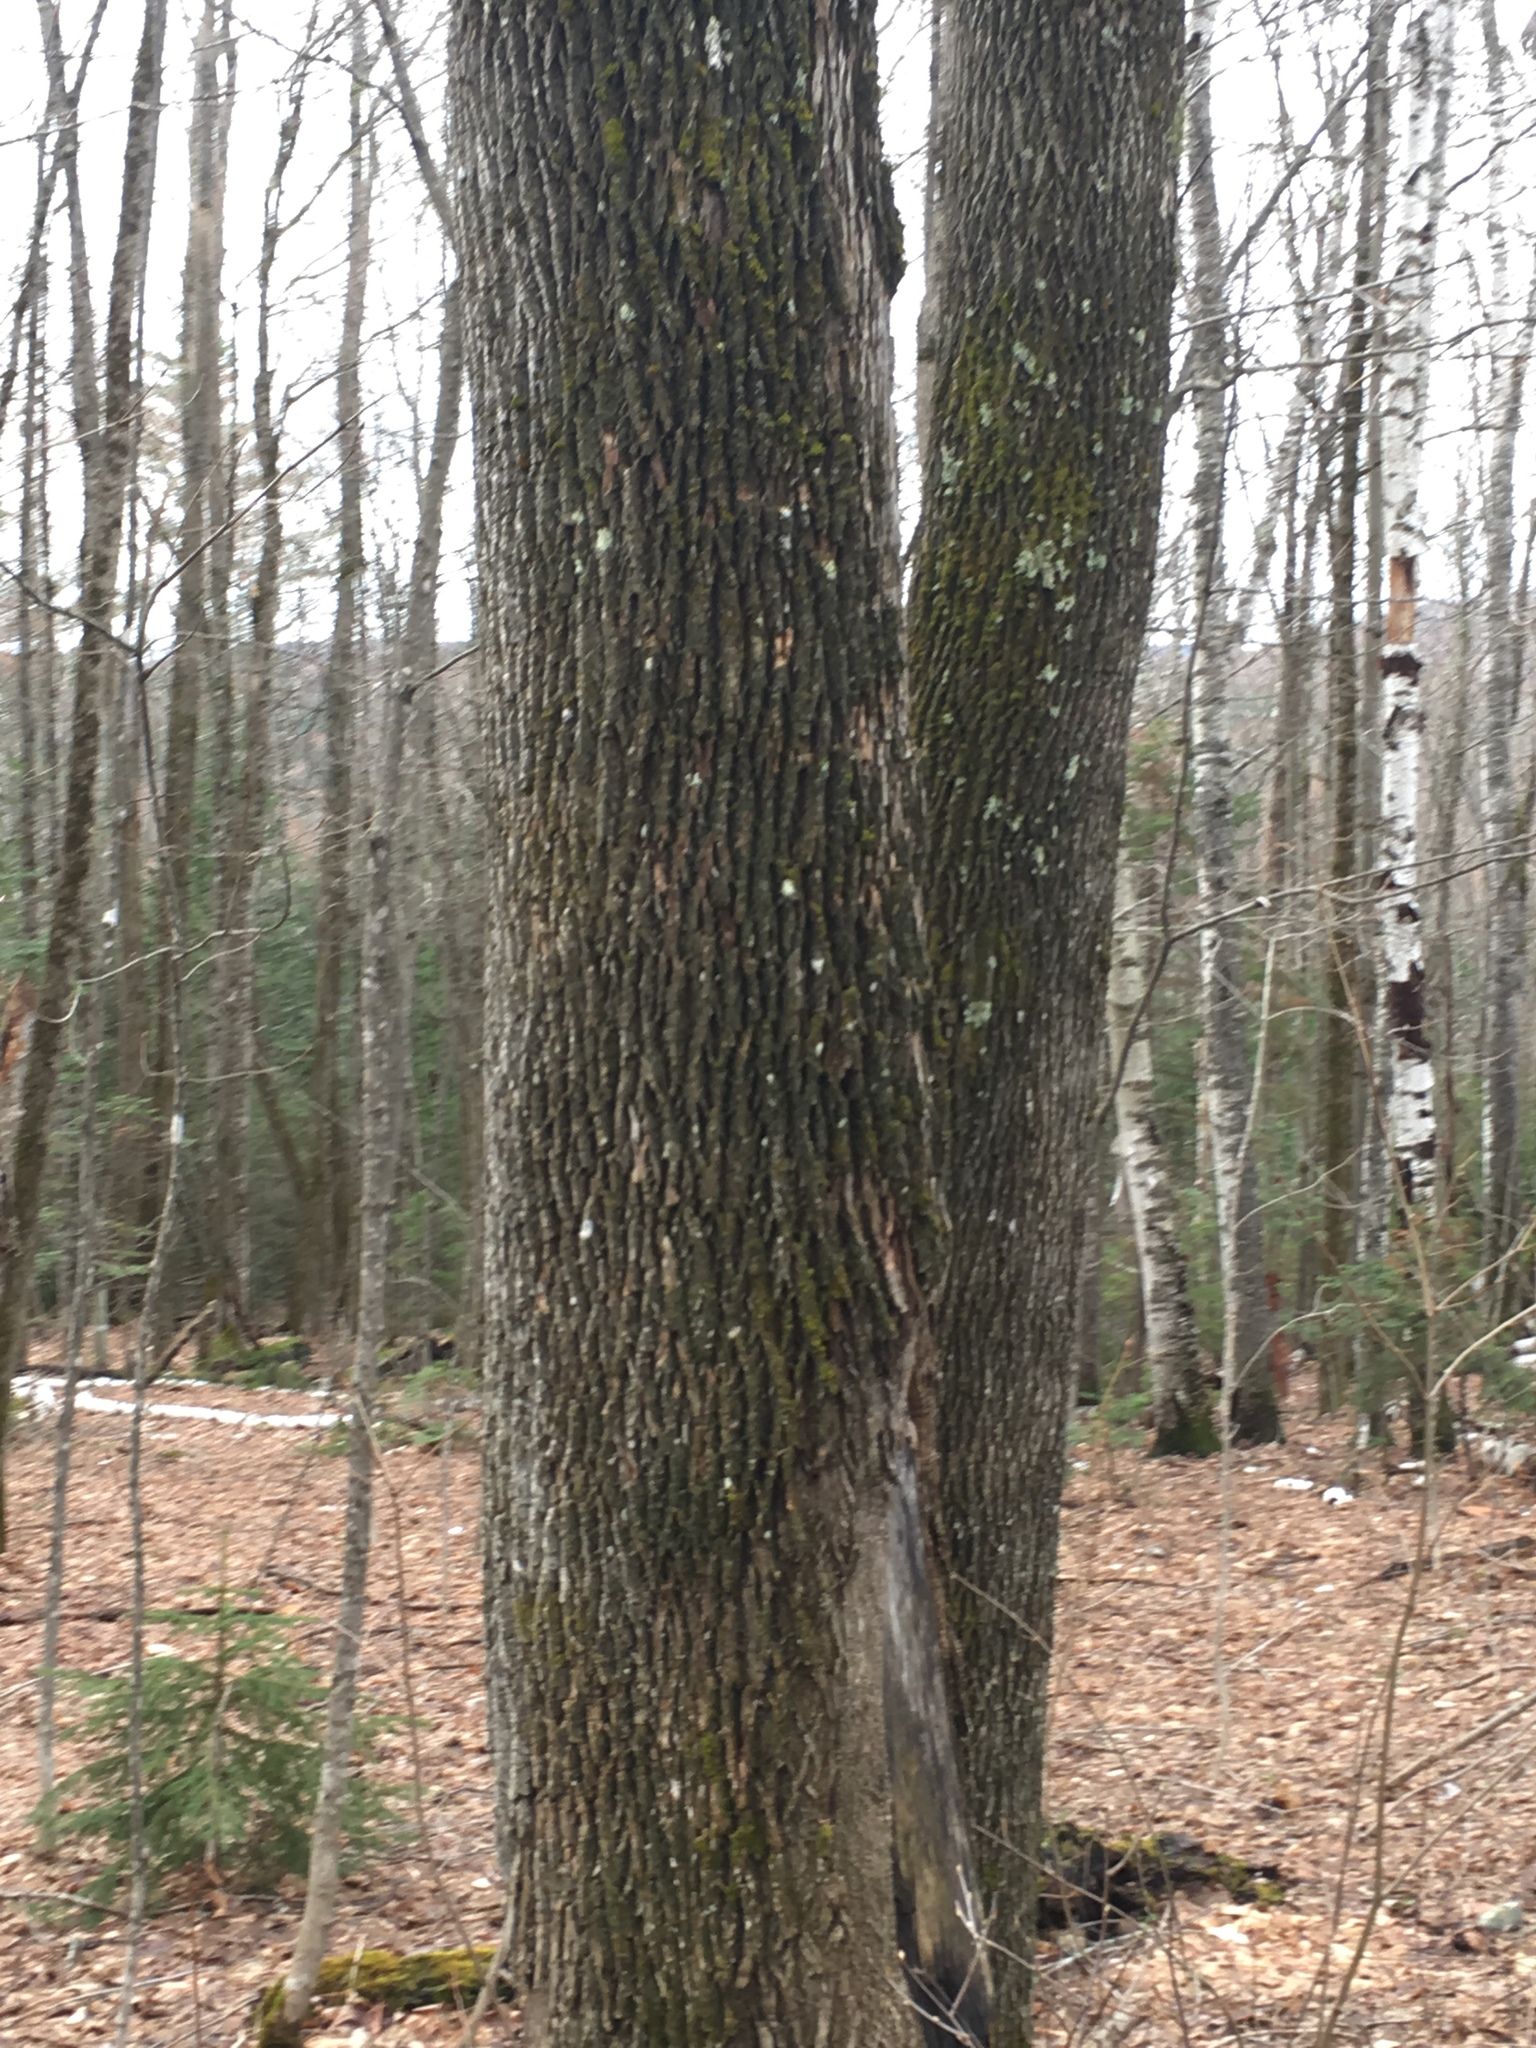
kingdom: Plantae
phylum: Tracheophyta
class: Magnoliopsida
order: Lamiales
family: Oleaceae
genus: Fraxinus
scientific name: Fraxinus americana
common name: White ash
